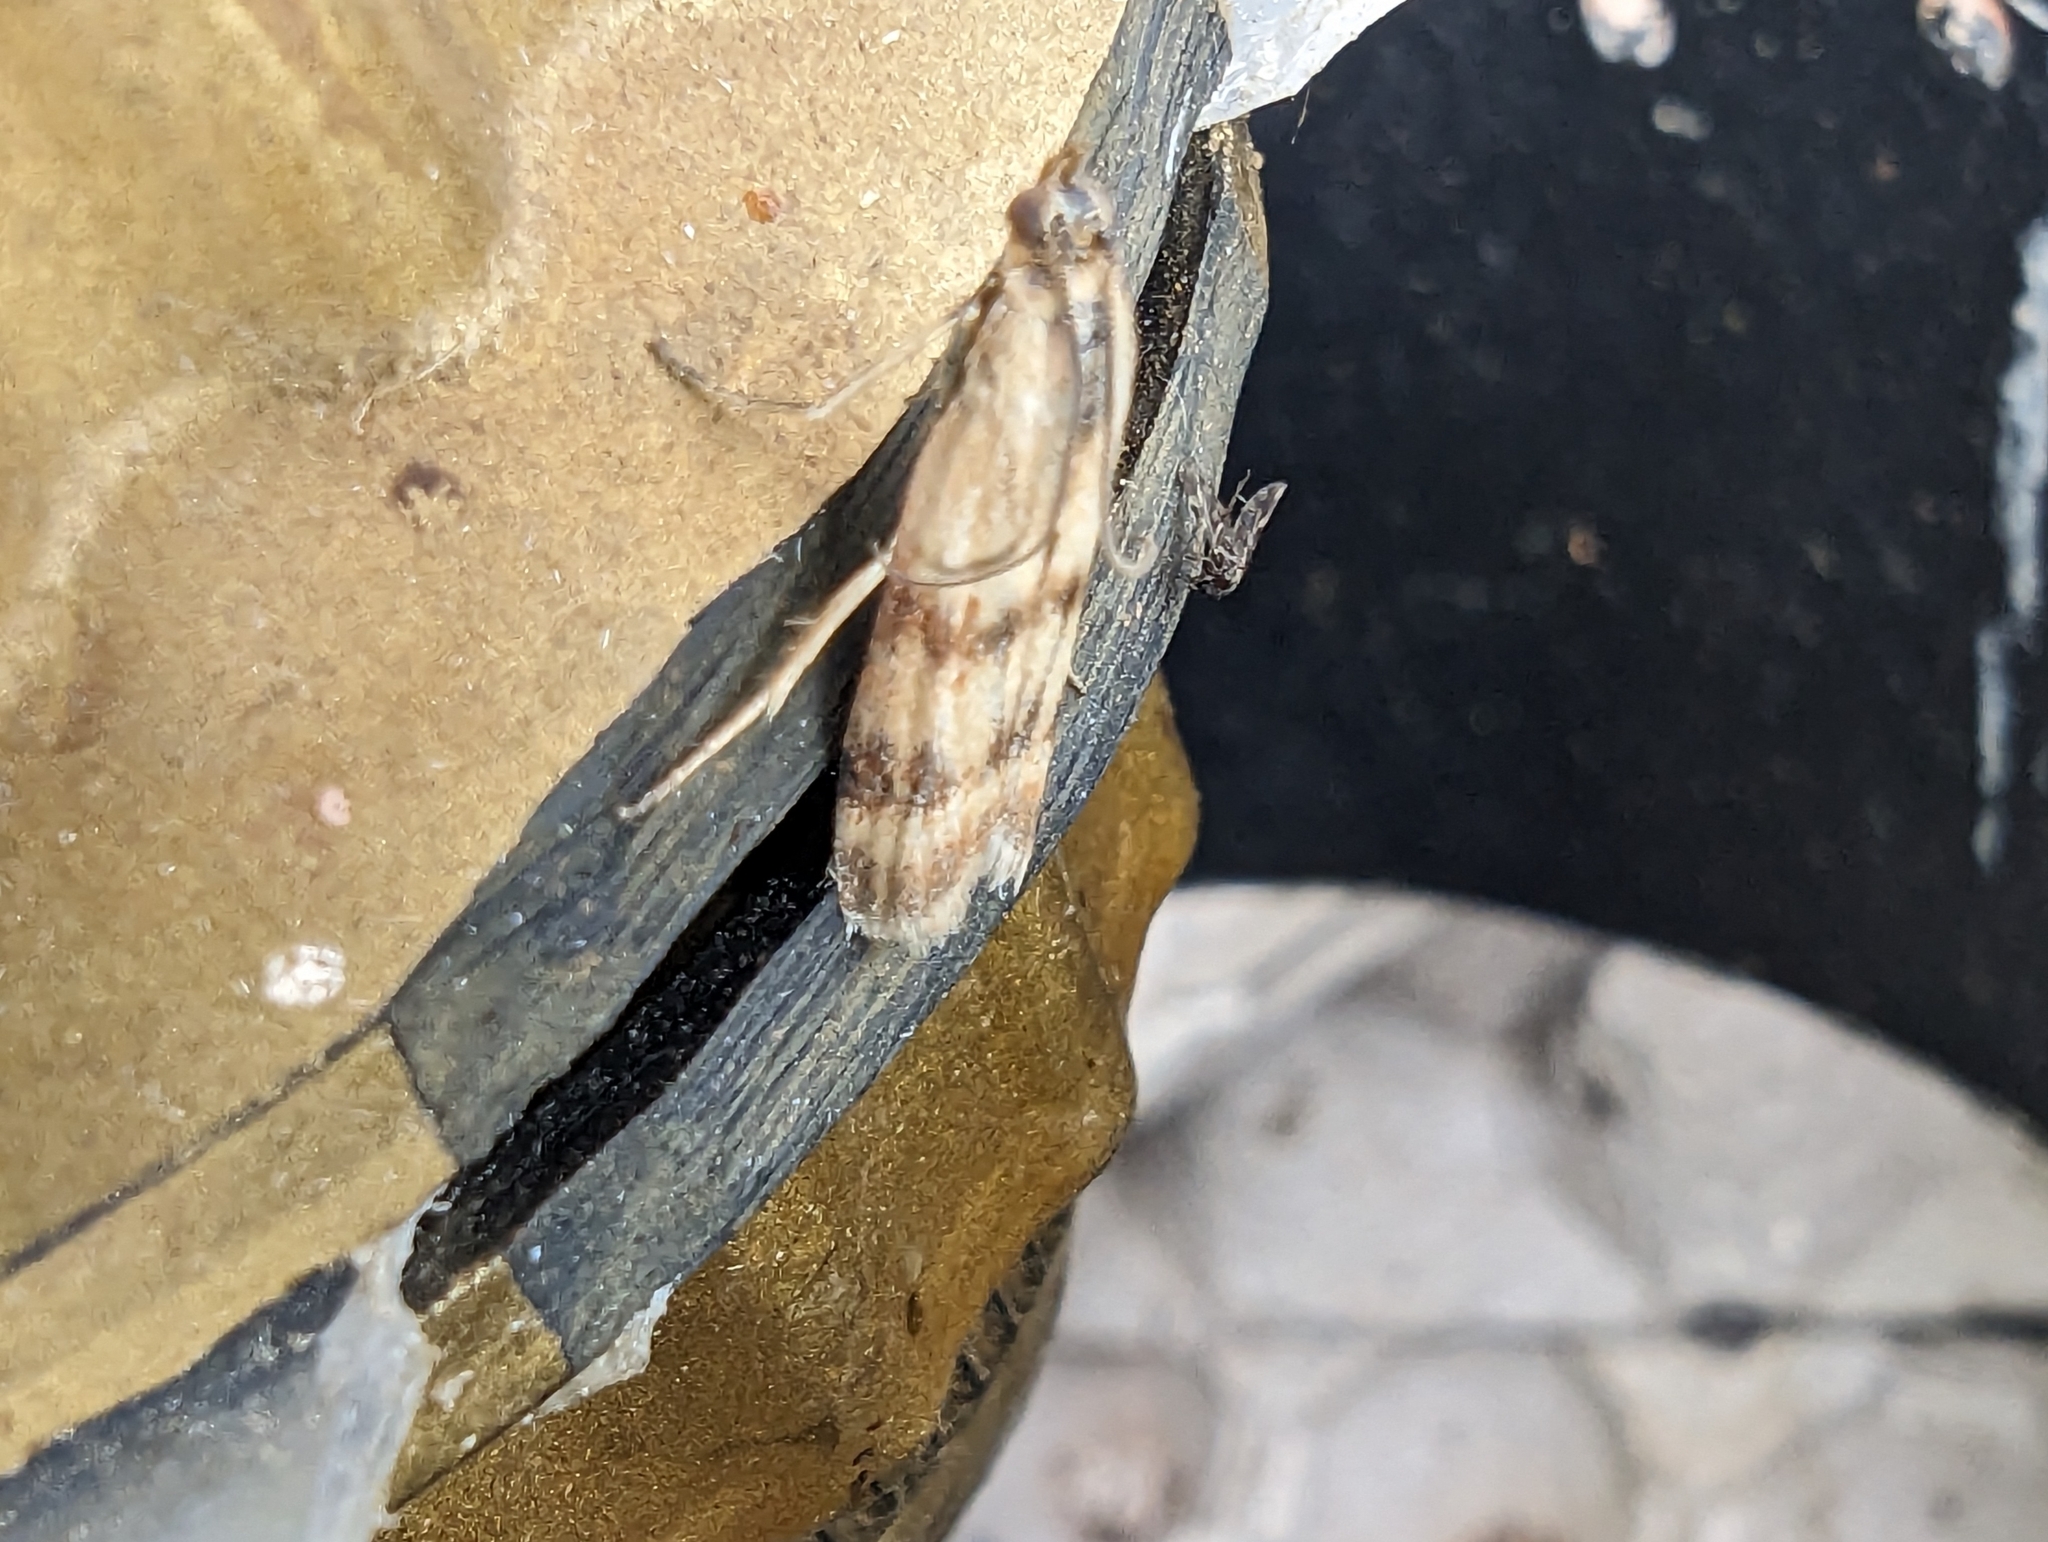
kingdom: Animalia
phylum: Arthropoda
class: Insecta
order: Lepidoptera
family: Pyralidae
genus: Homoeosoma
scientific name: Homoeosoma sinuella
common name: Twin-barred knot-horn
